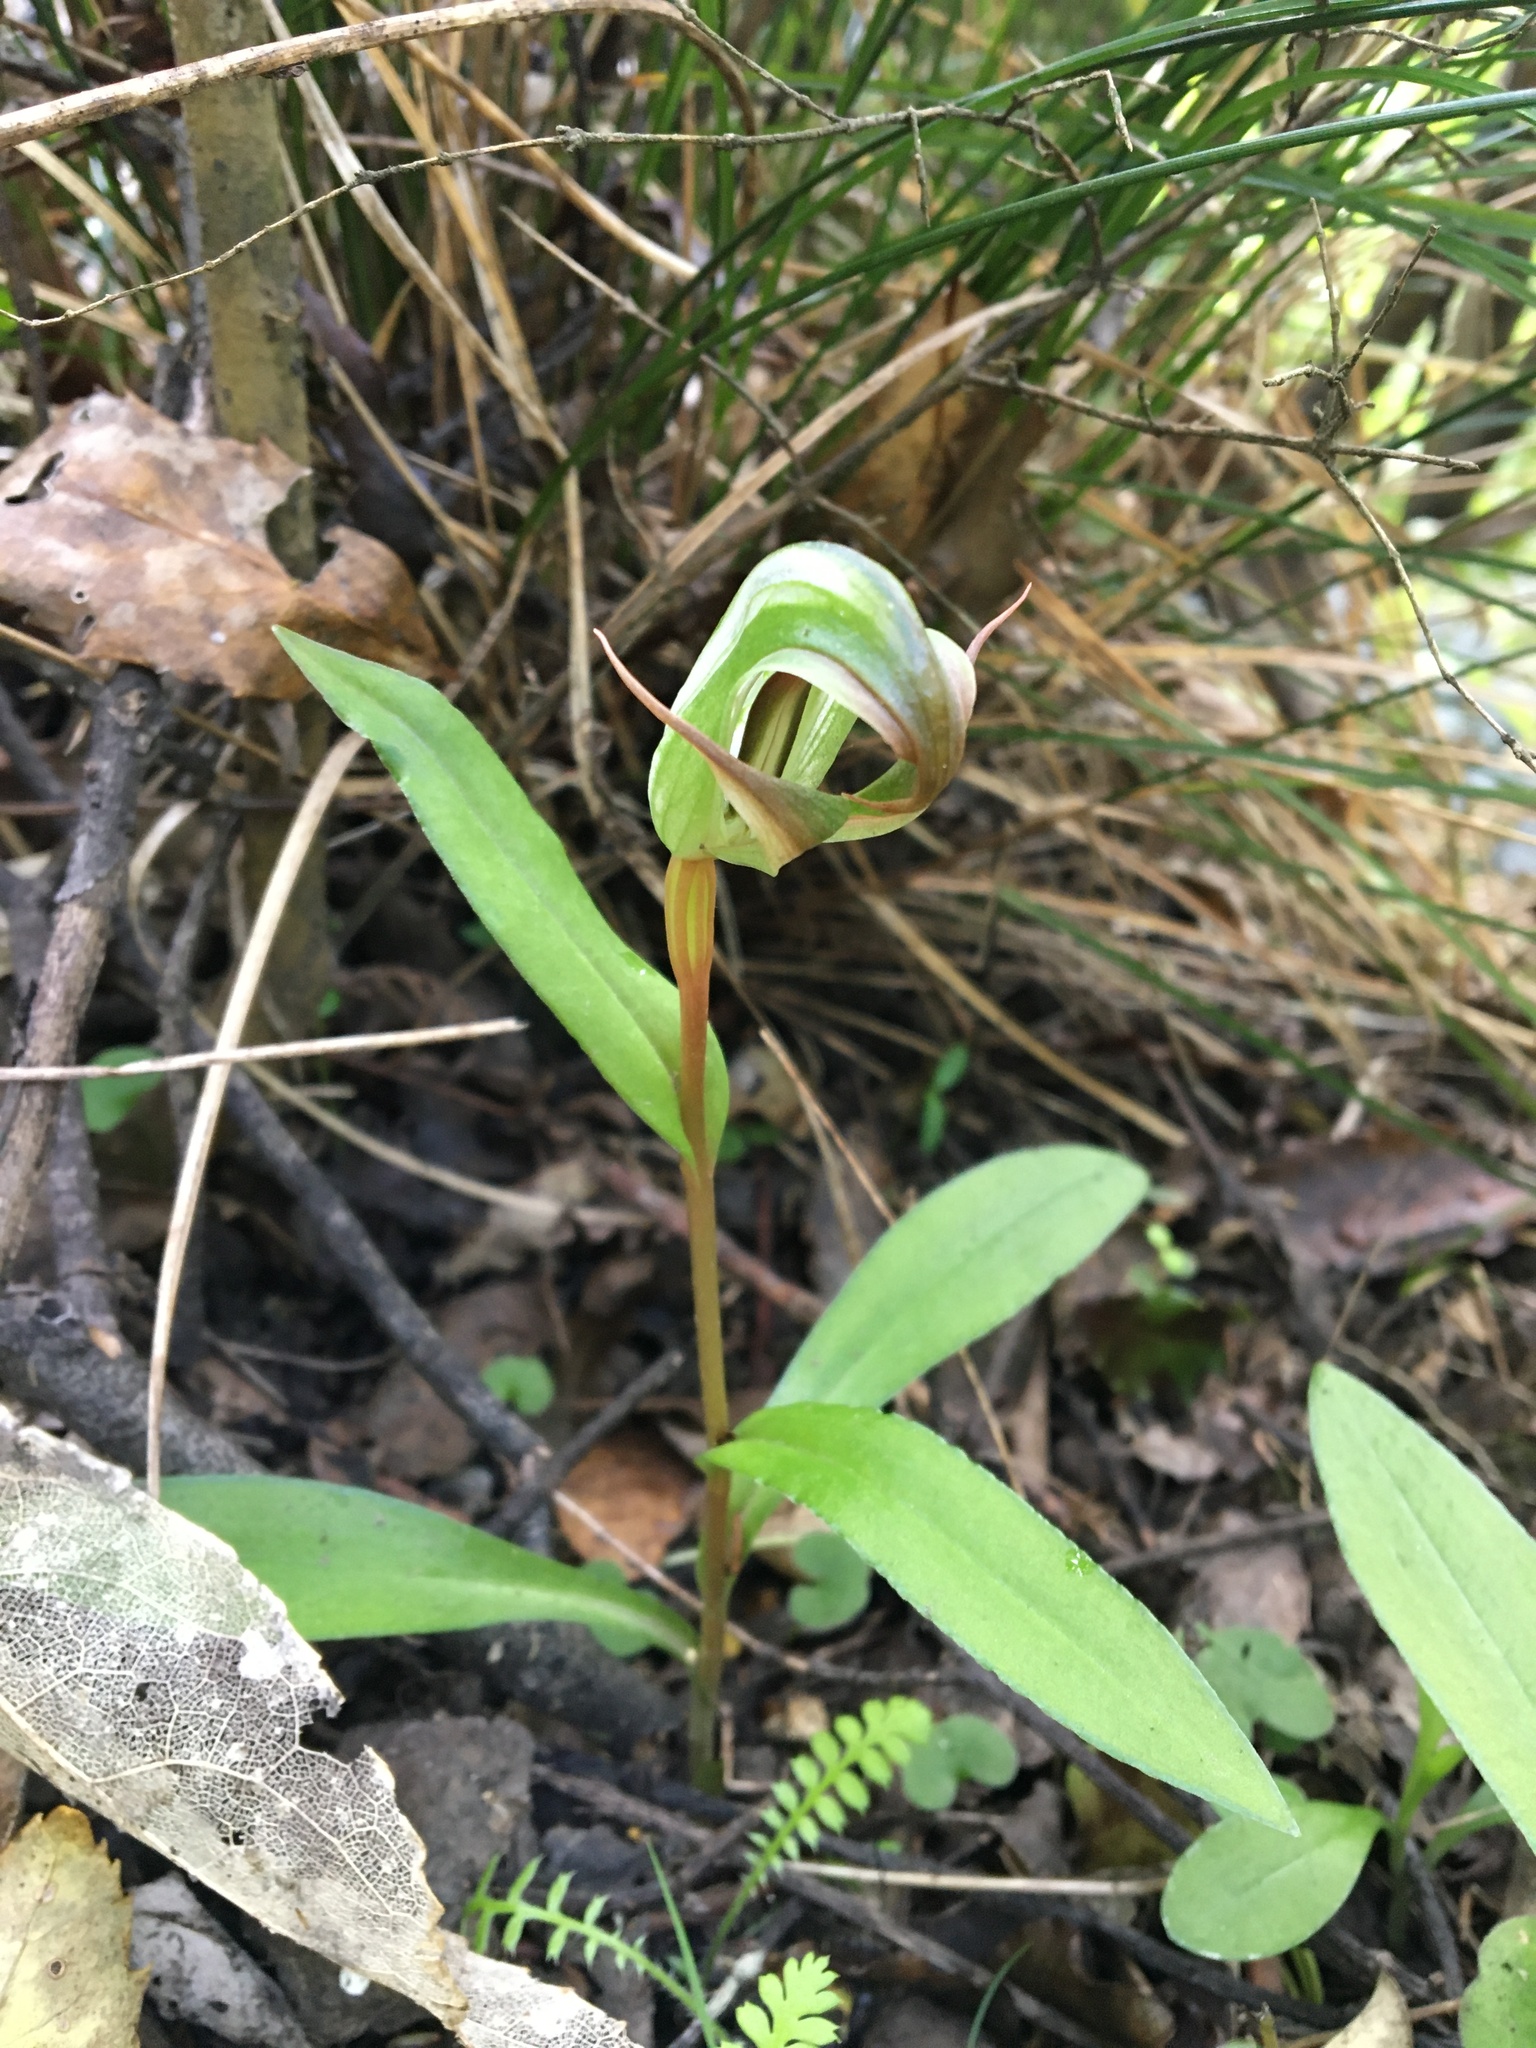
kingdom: Plantae
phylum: Tracheophyta
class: Liliopsida
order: Asparagales
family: Orchidaceae
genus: Pterostylis
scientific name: Pterostylis areolata
